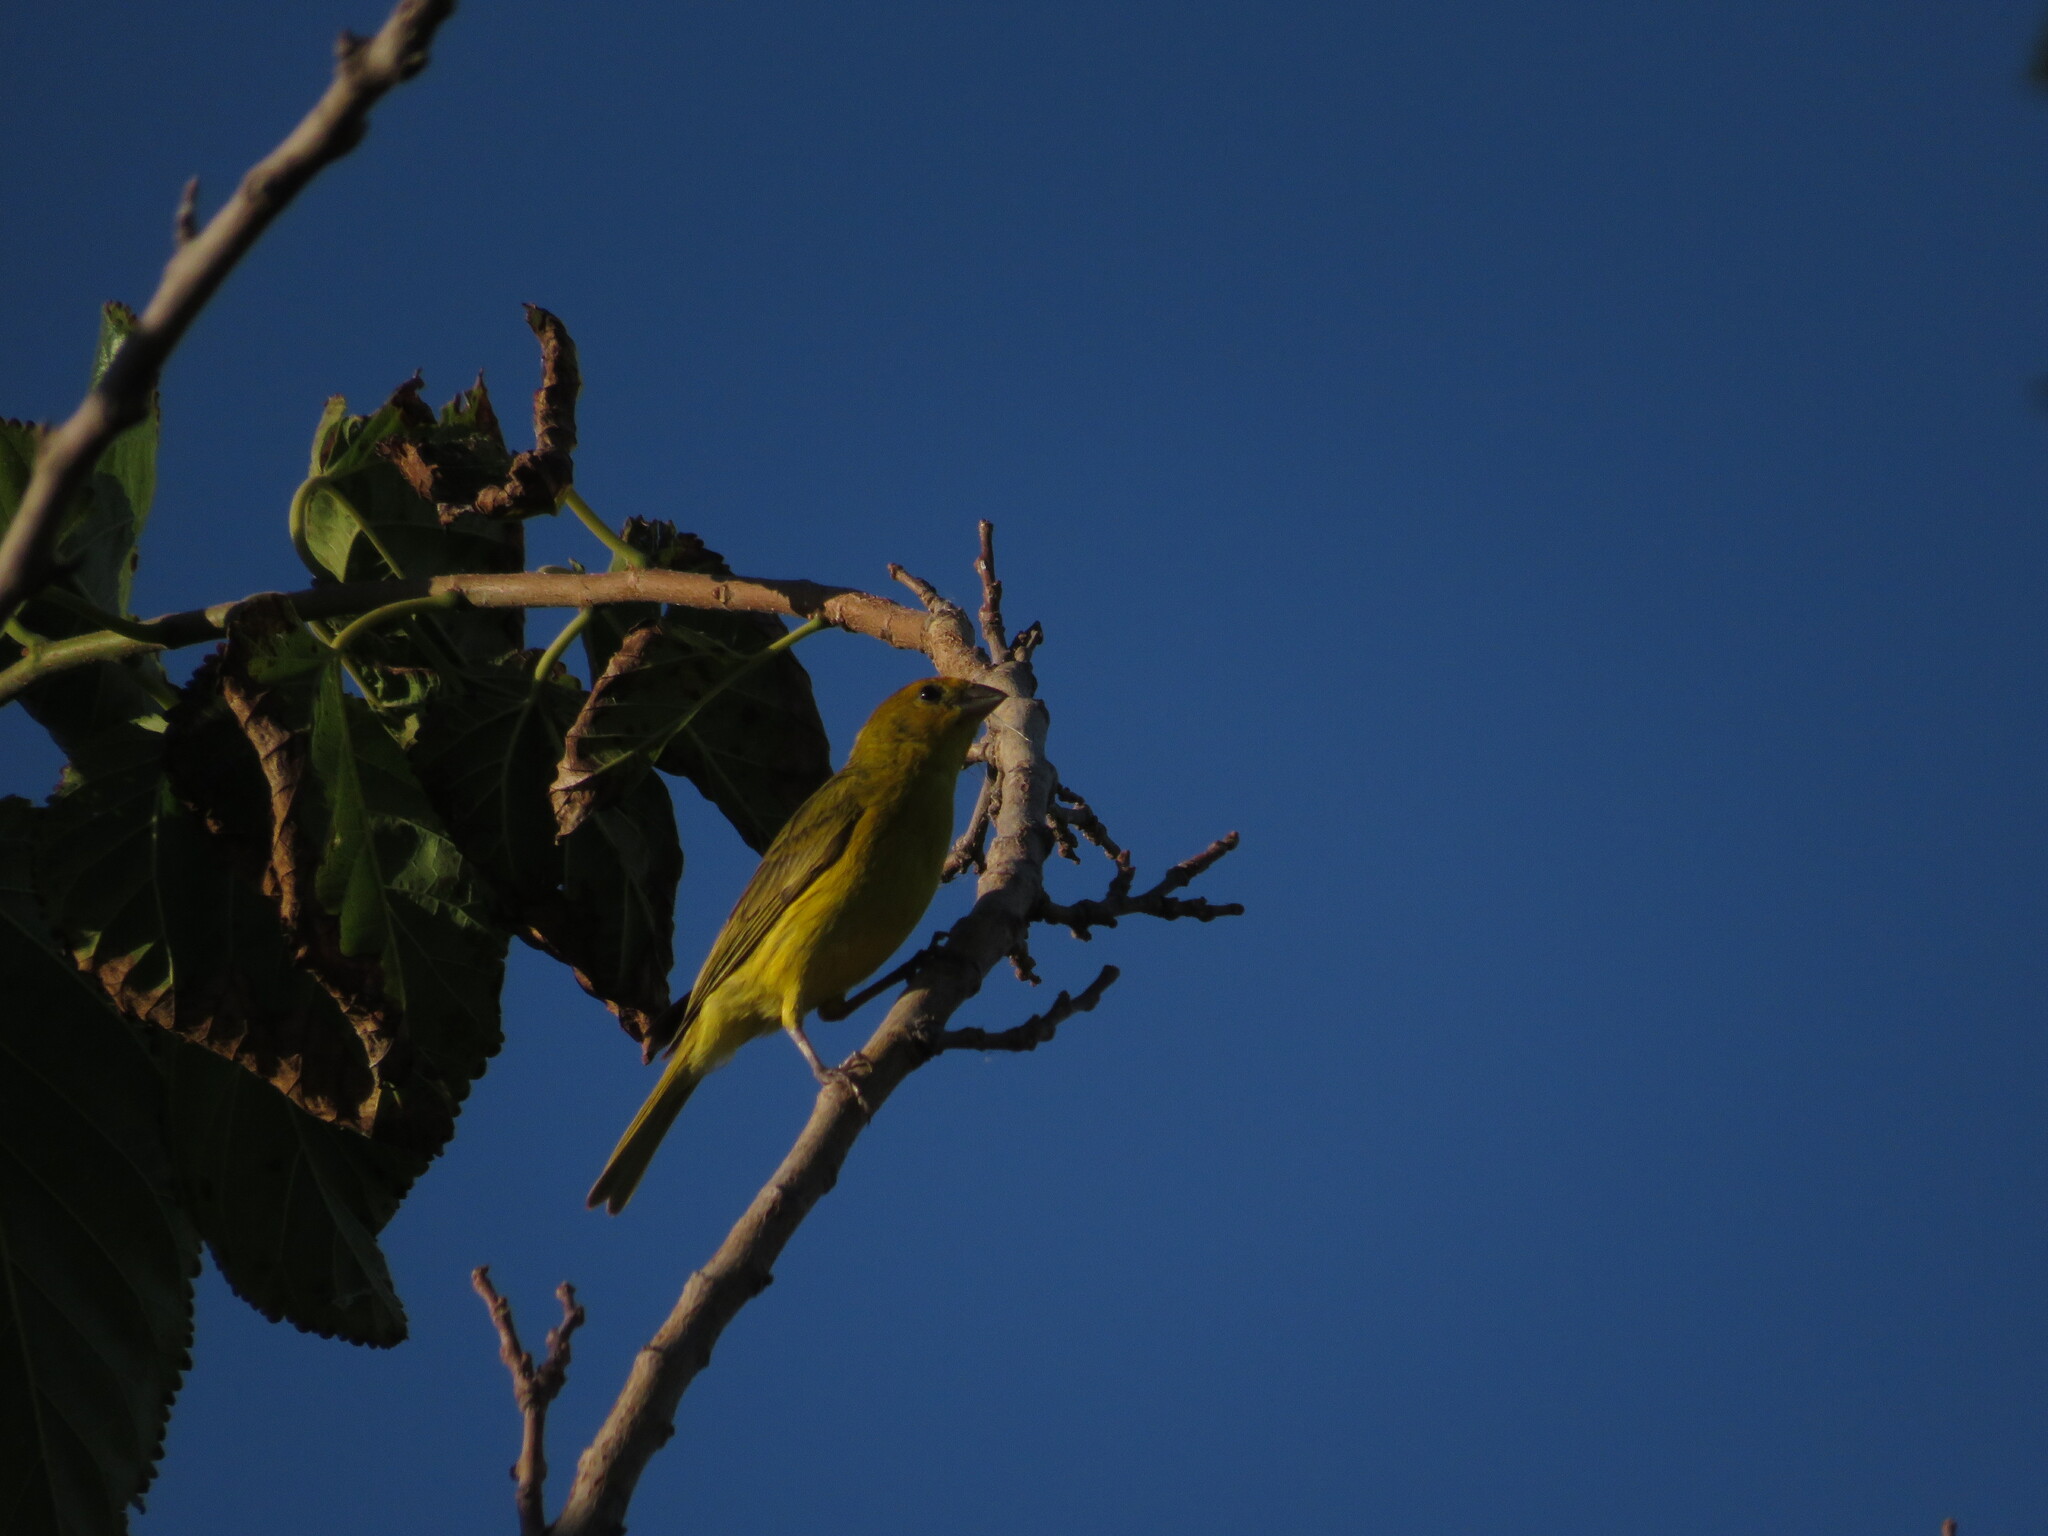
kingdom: Animalia
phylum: Chordata
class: Aves
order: Passeriformes
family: Thraupidae
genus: Sicalis
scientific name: Sicalis flaveola
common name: Saffron finch
